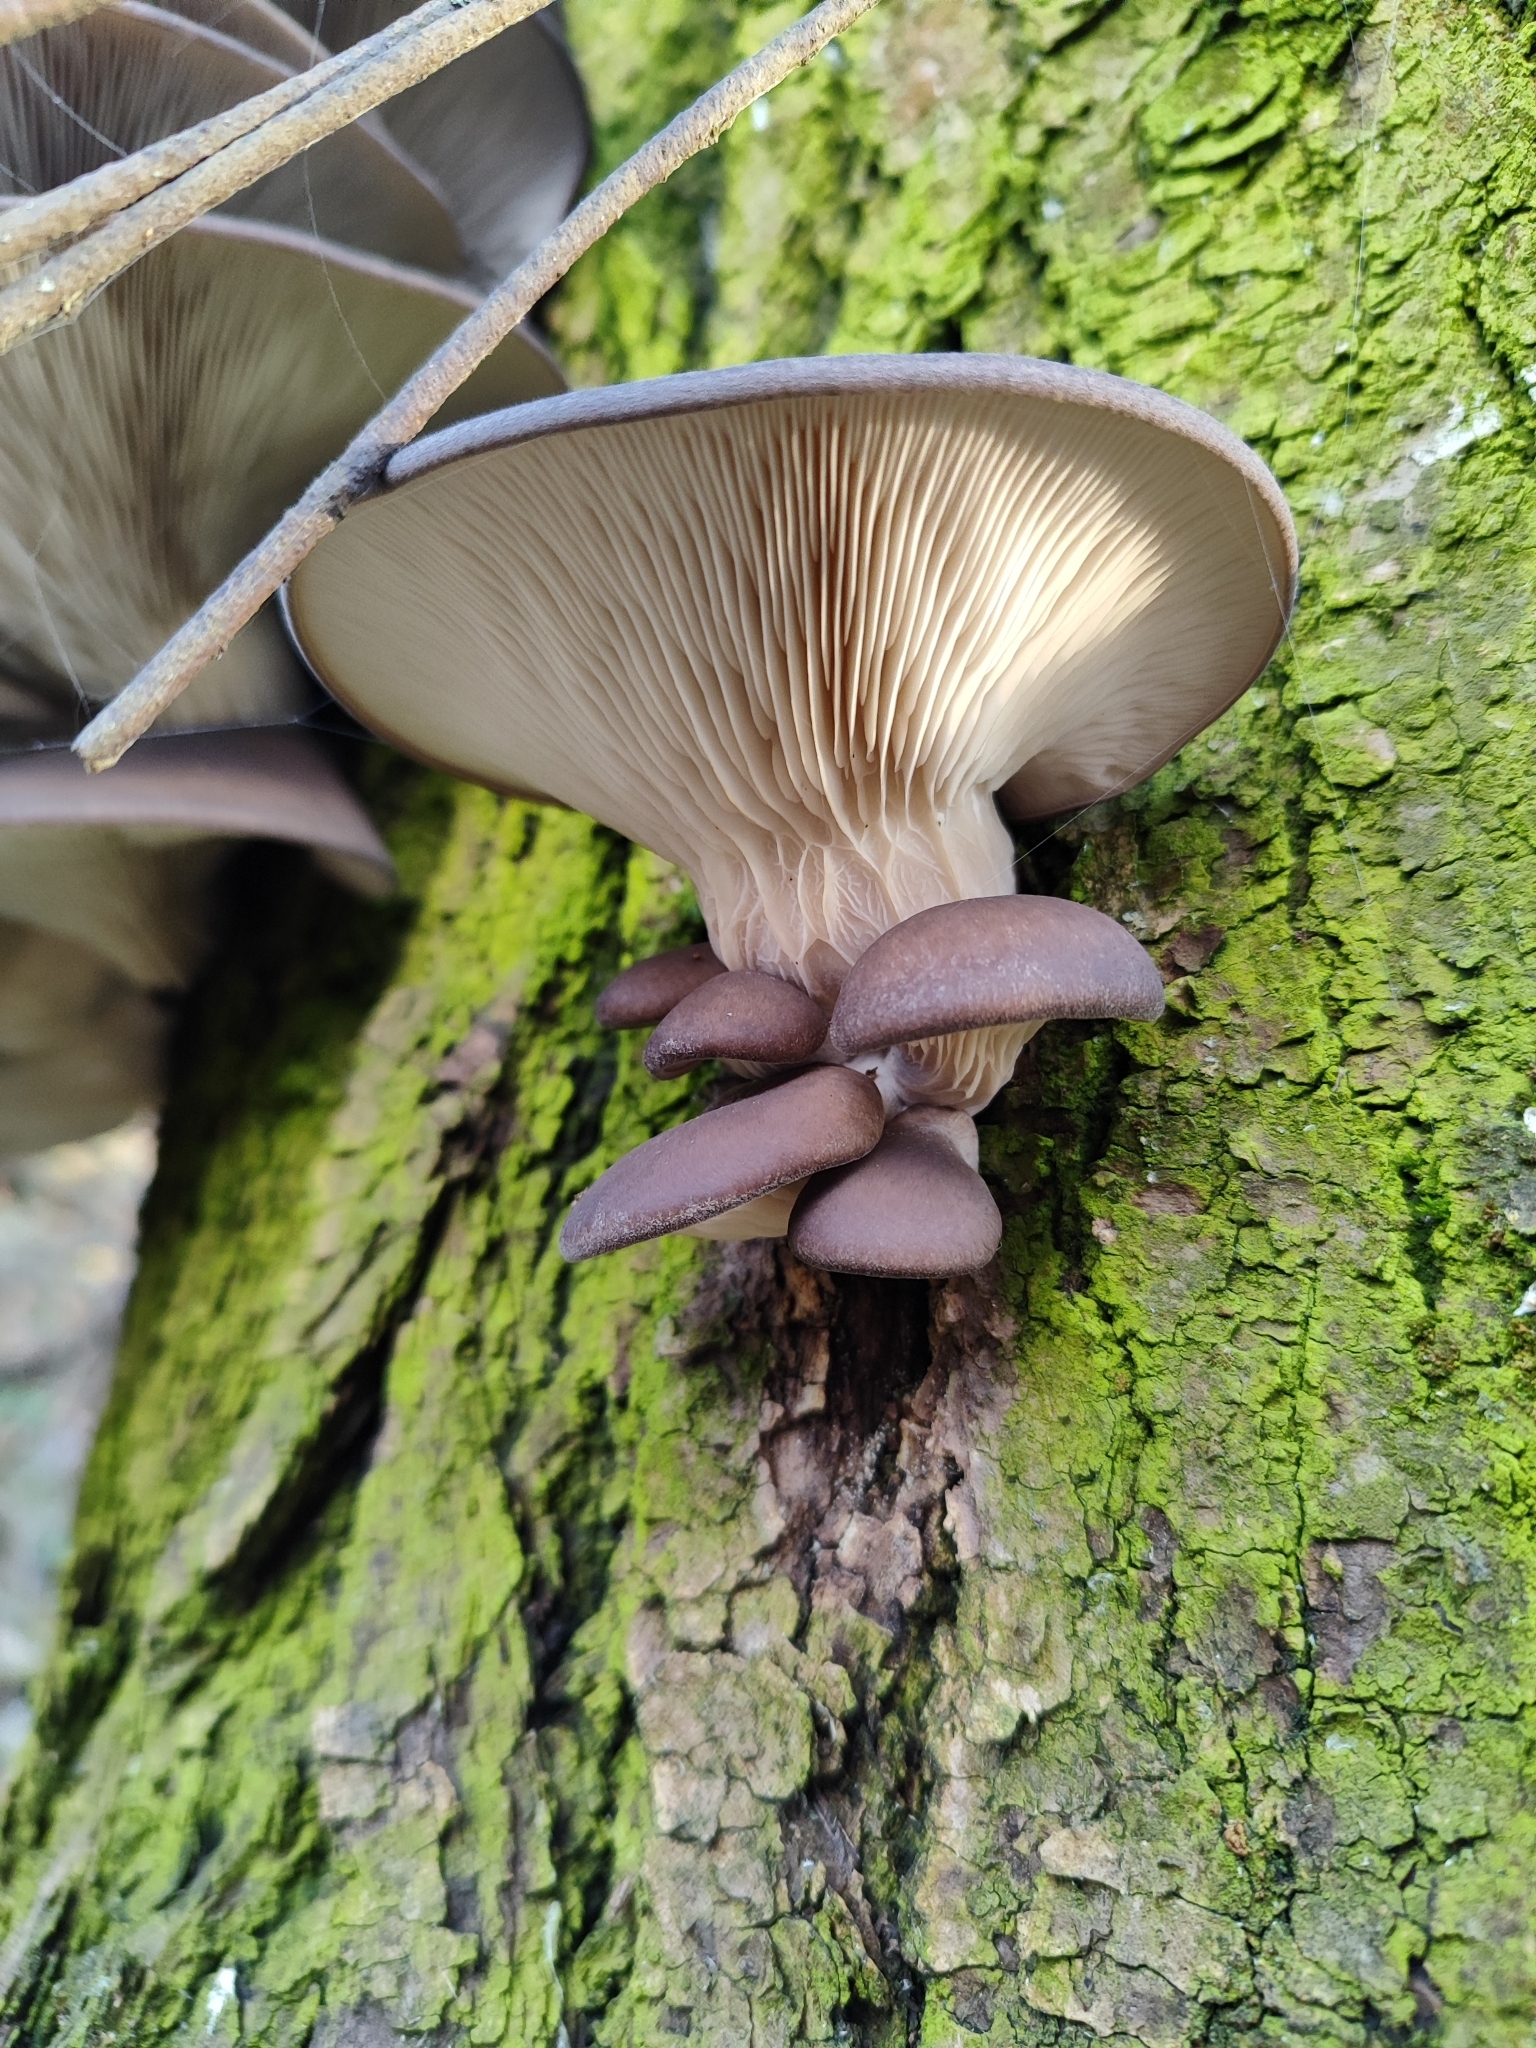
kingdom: Fungi
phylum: Basidiomycota
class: Agaricomycetes
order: Agaricales
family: Pleurotaceae
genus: Pleurotus
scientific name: Pleurotus ostreatus
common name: Oyster mushroom
